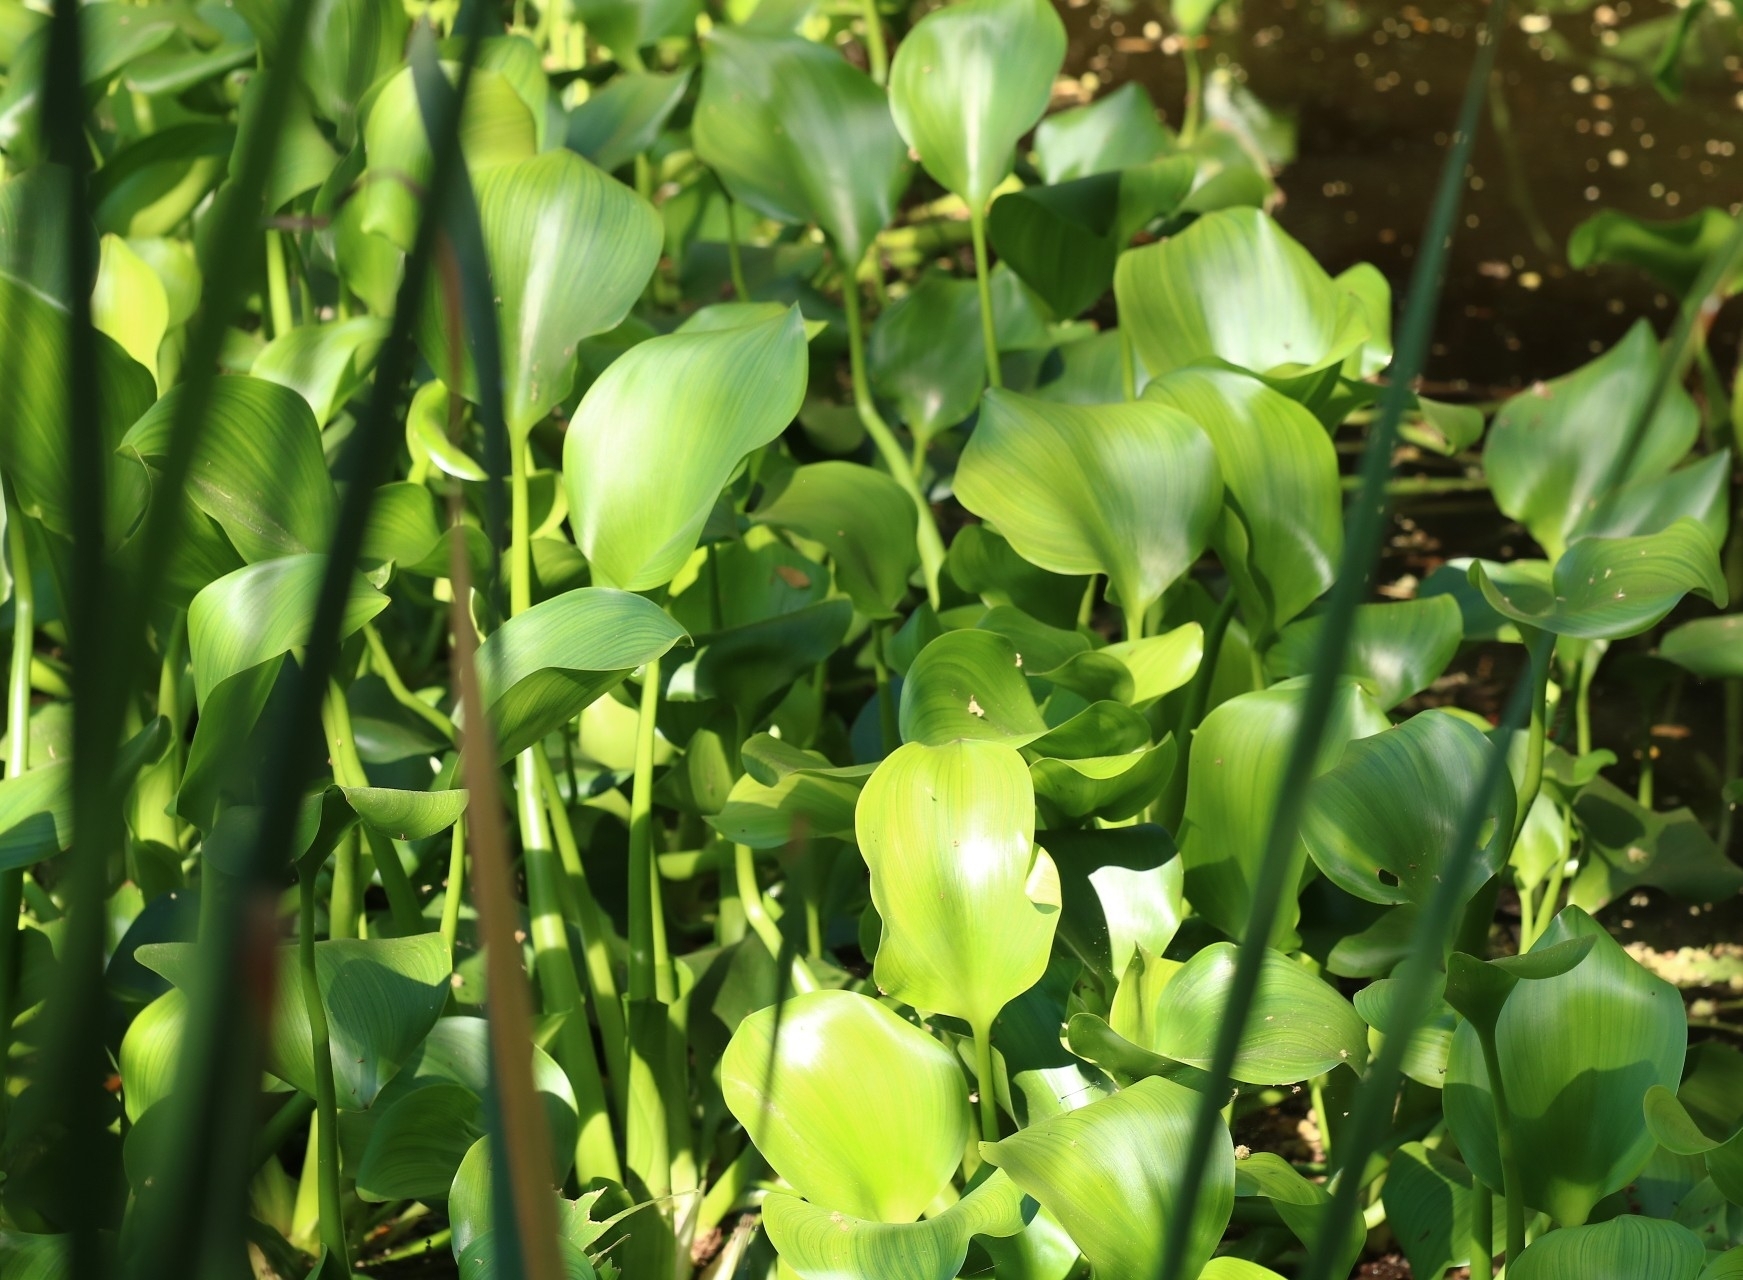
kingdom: Plantae
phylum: Tracheophyta
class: Liliopsida
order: Commelinales
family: Pontederiaceae
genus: Pontederia
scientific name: Pontederia crassipes
